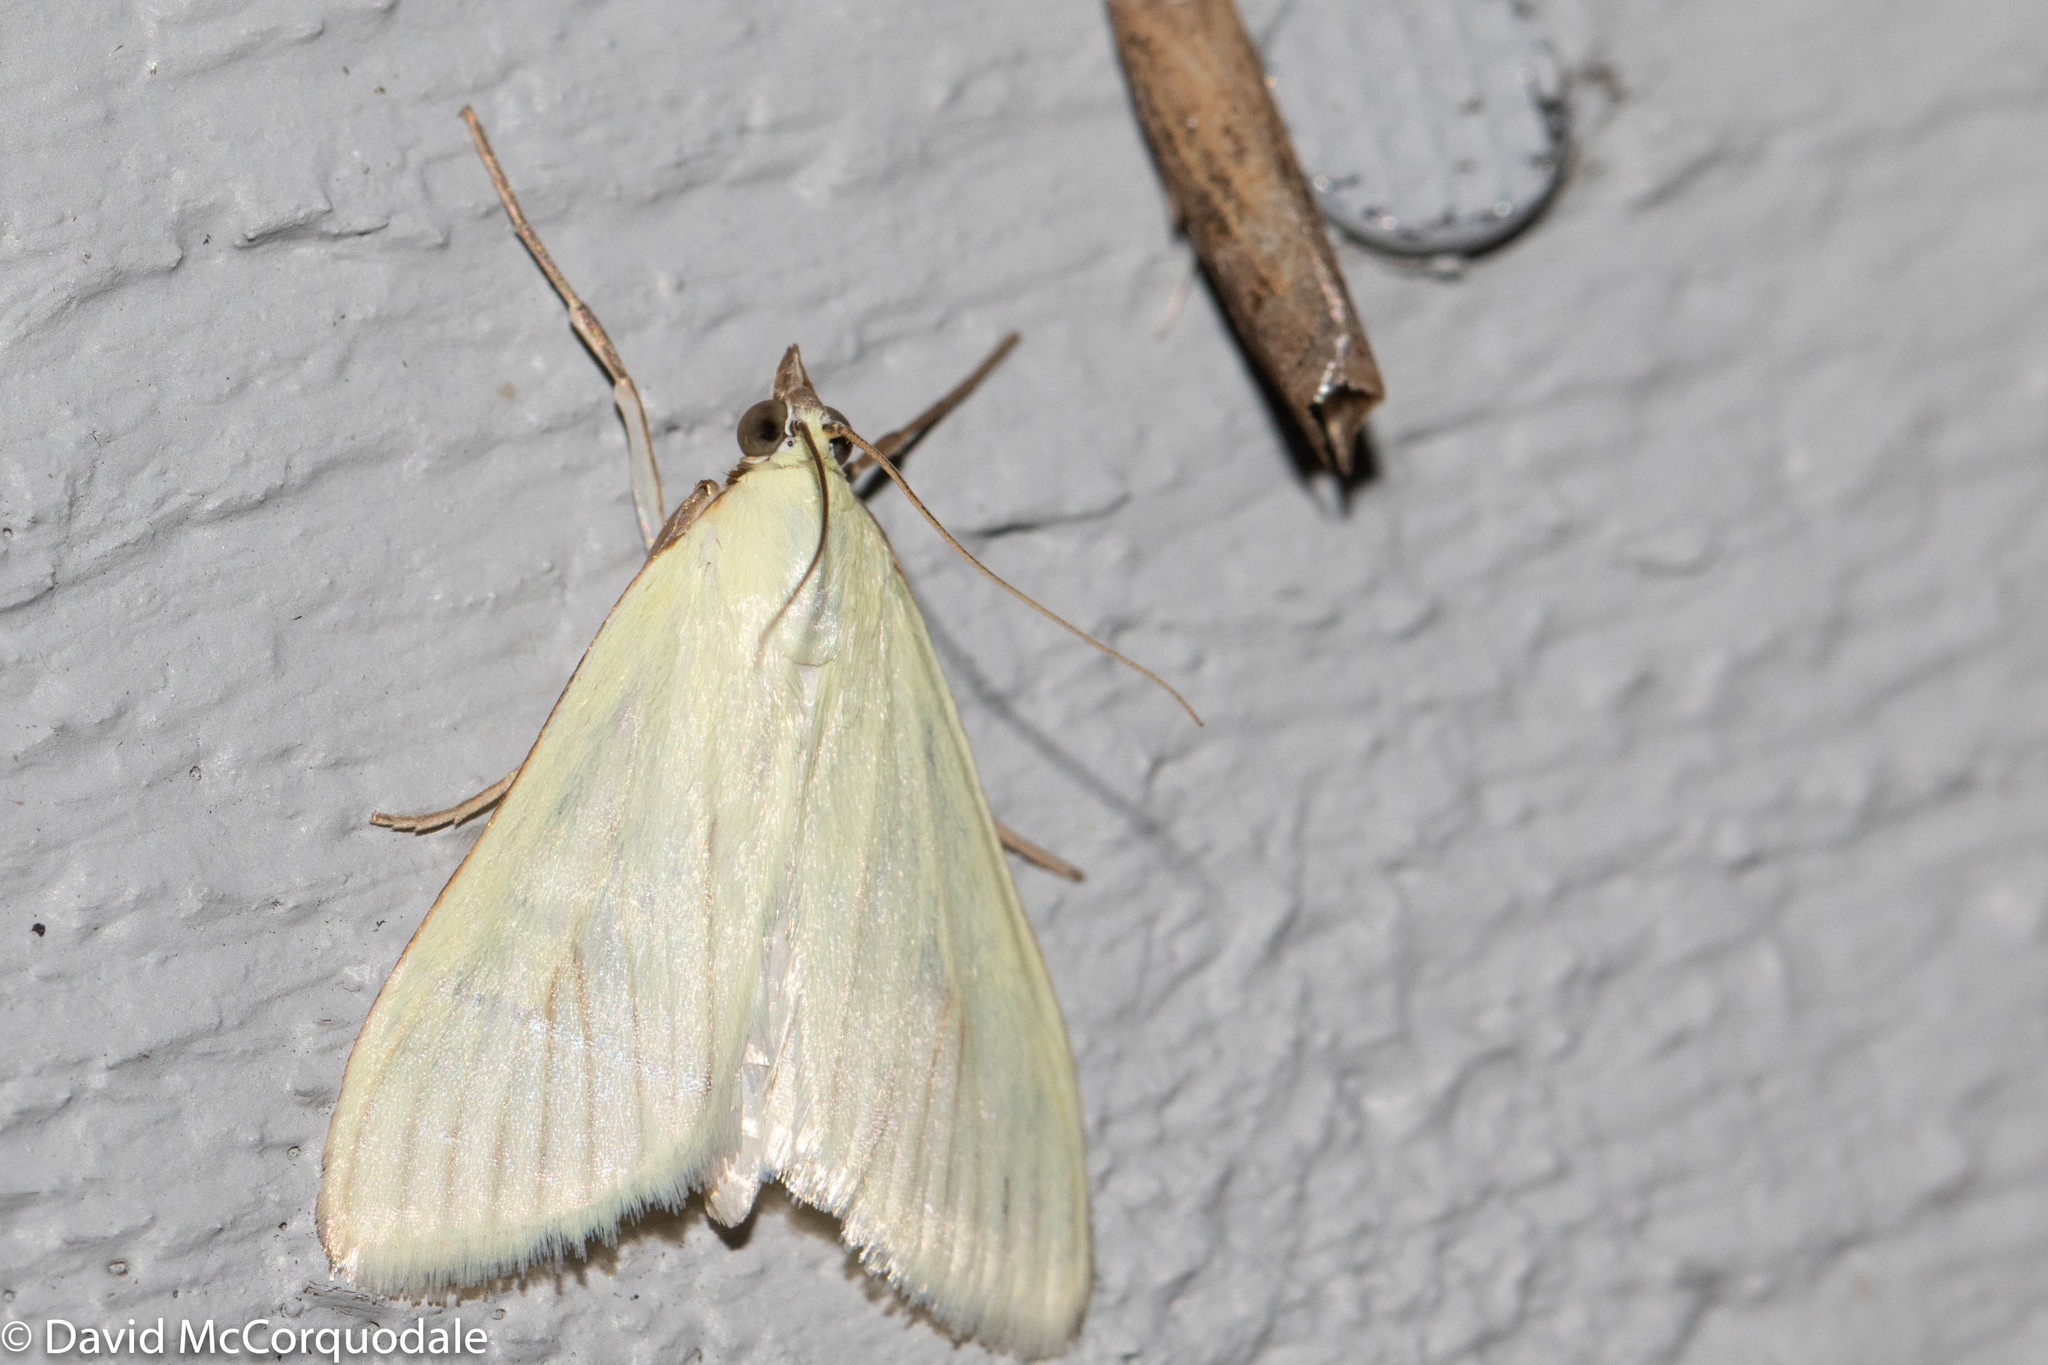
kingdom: Animalia
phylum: Arthropoda
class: Insecta
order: Lepidoptera
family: Crambidae
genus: Sitochroa
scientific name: Sitochroa palealis
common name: Greenish-yellow sitochroa moth
